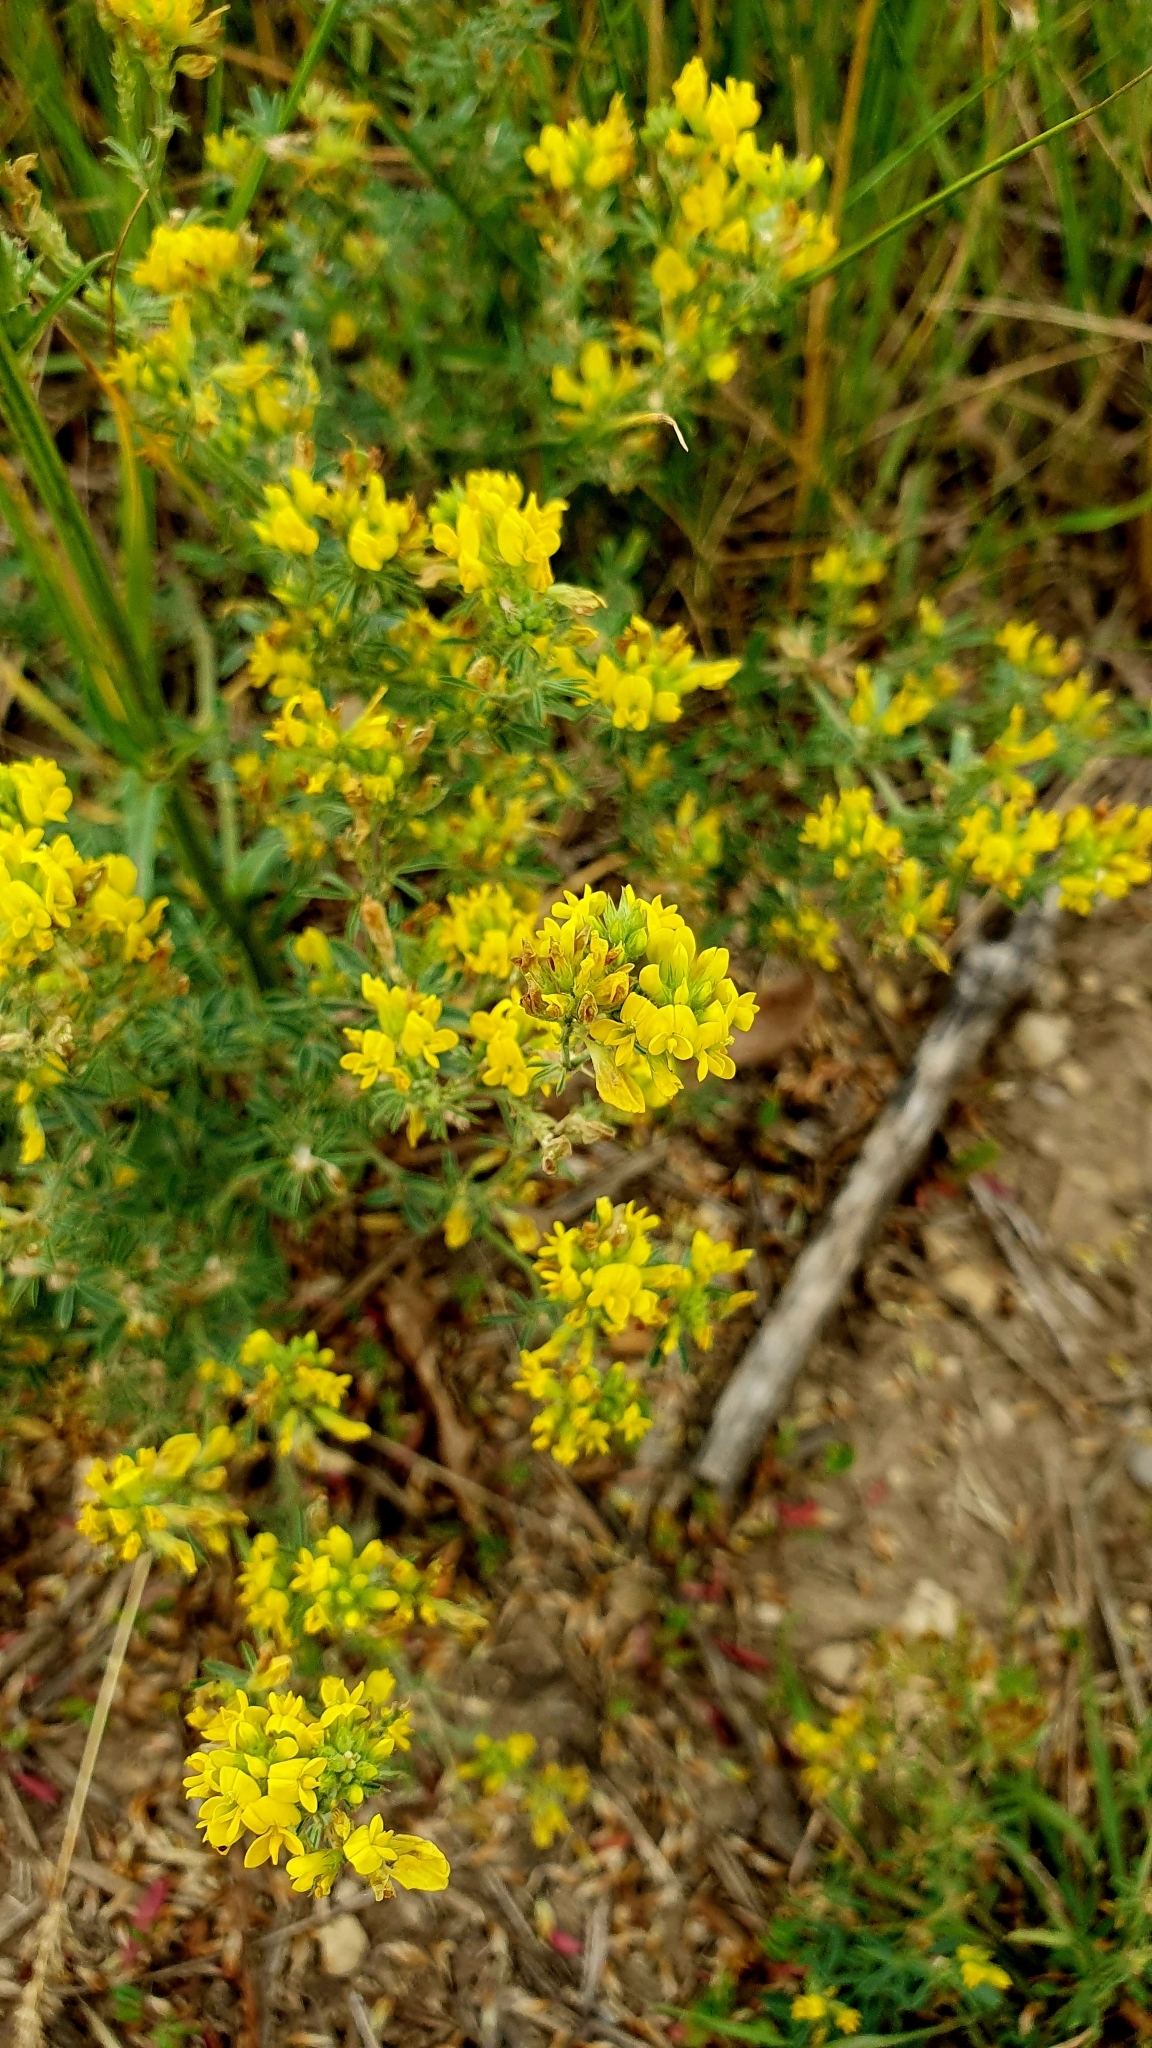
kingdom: Plantae
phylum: Tracheophyta
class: Magnoliopsida
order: Fabales
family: Fabaceae
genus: Medicago
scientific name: Medicago falcata
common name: Sickle medick
